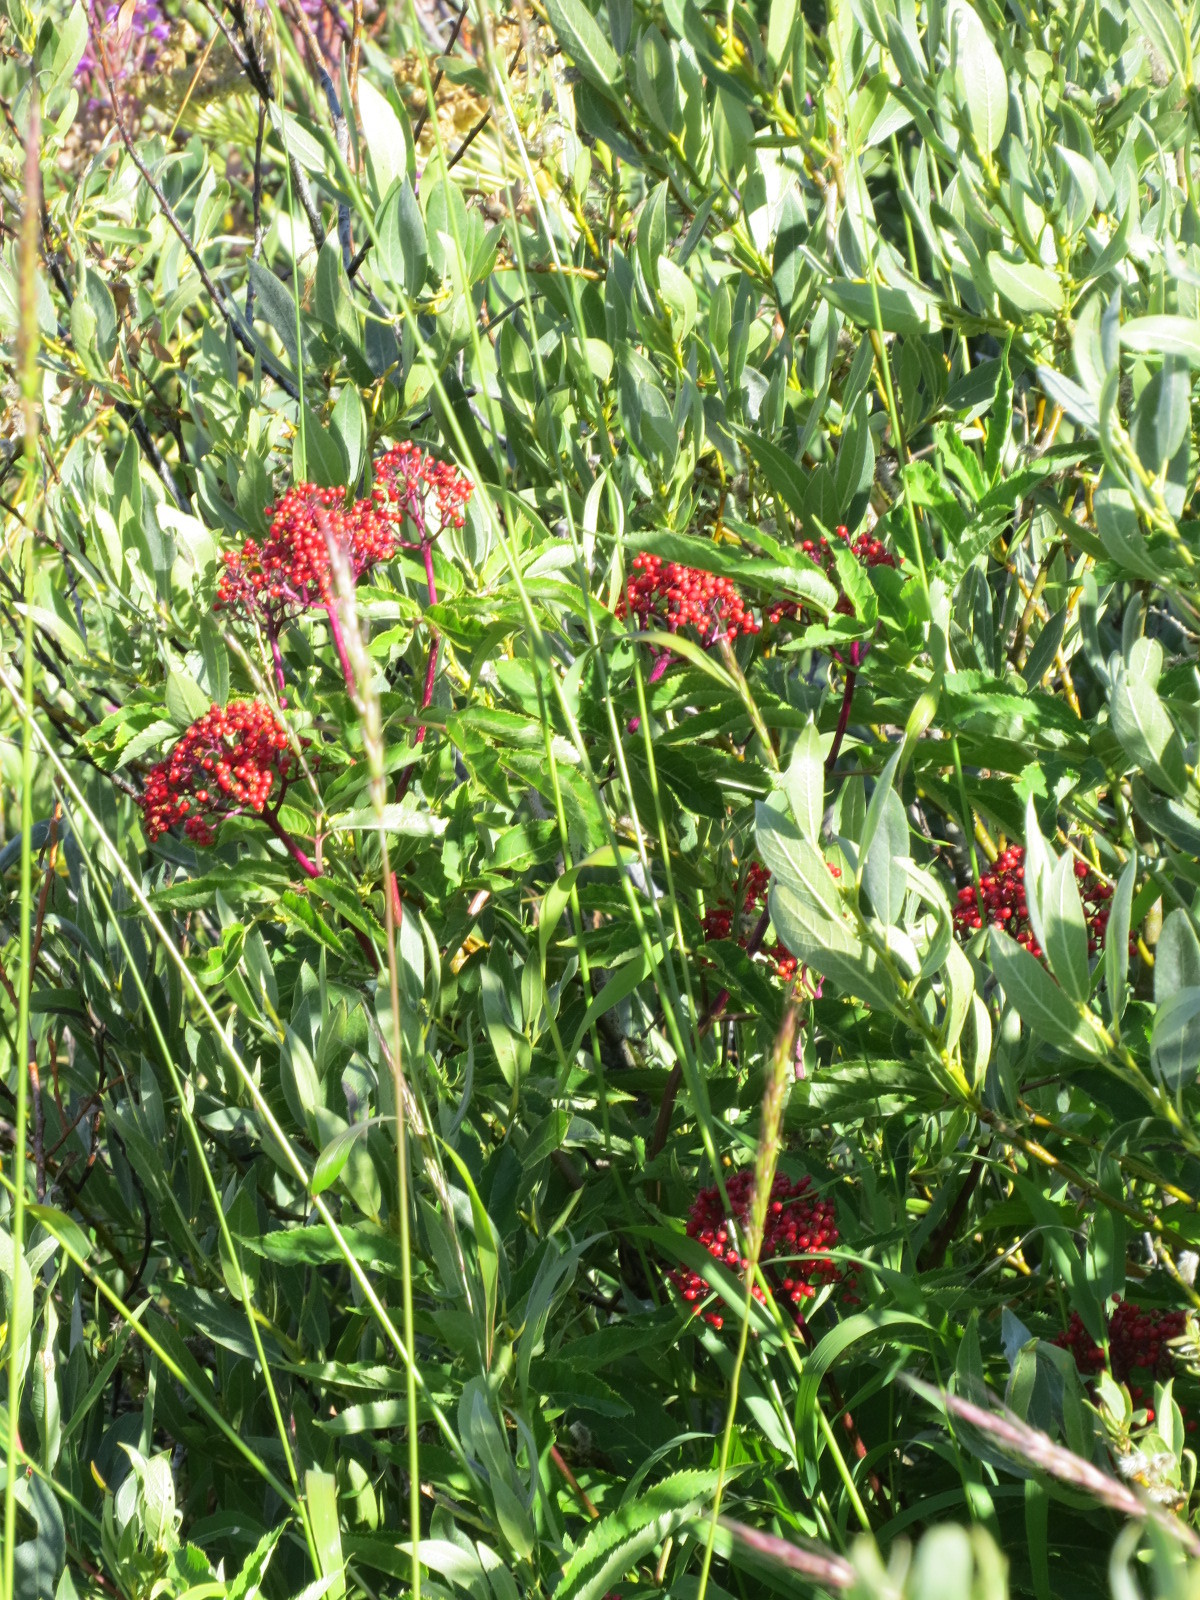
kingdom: Plantae
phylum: Tracheophyta
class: Magnoliopsida
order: Dipsacales
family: Viburnaceae
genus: Sambucus
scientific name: Sambucus racemosa
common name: Red-berried elder
